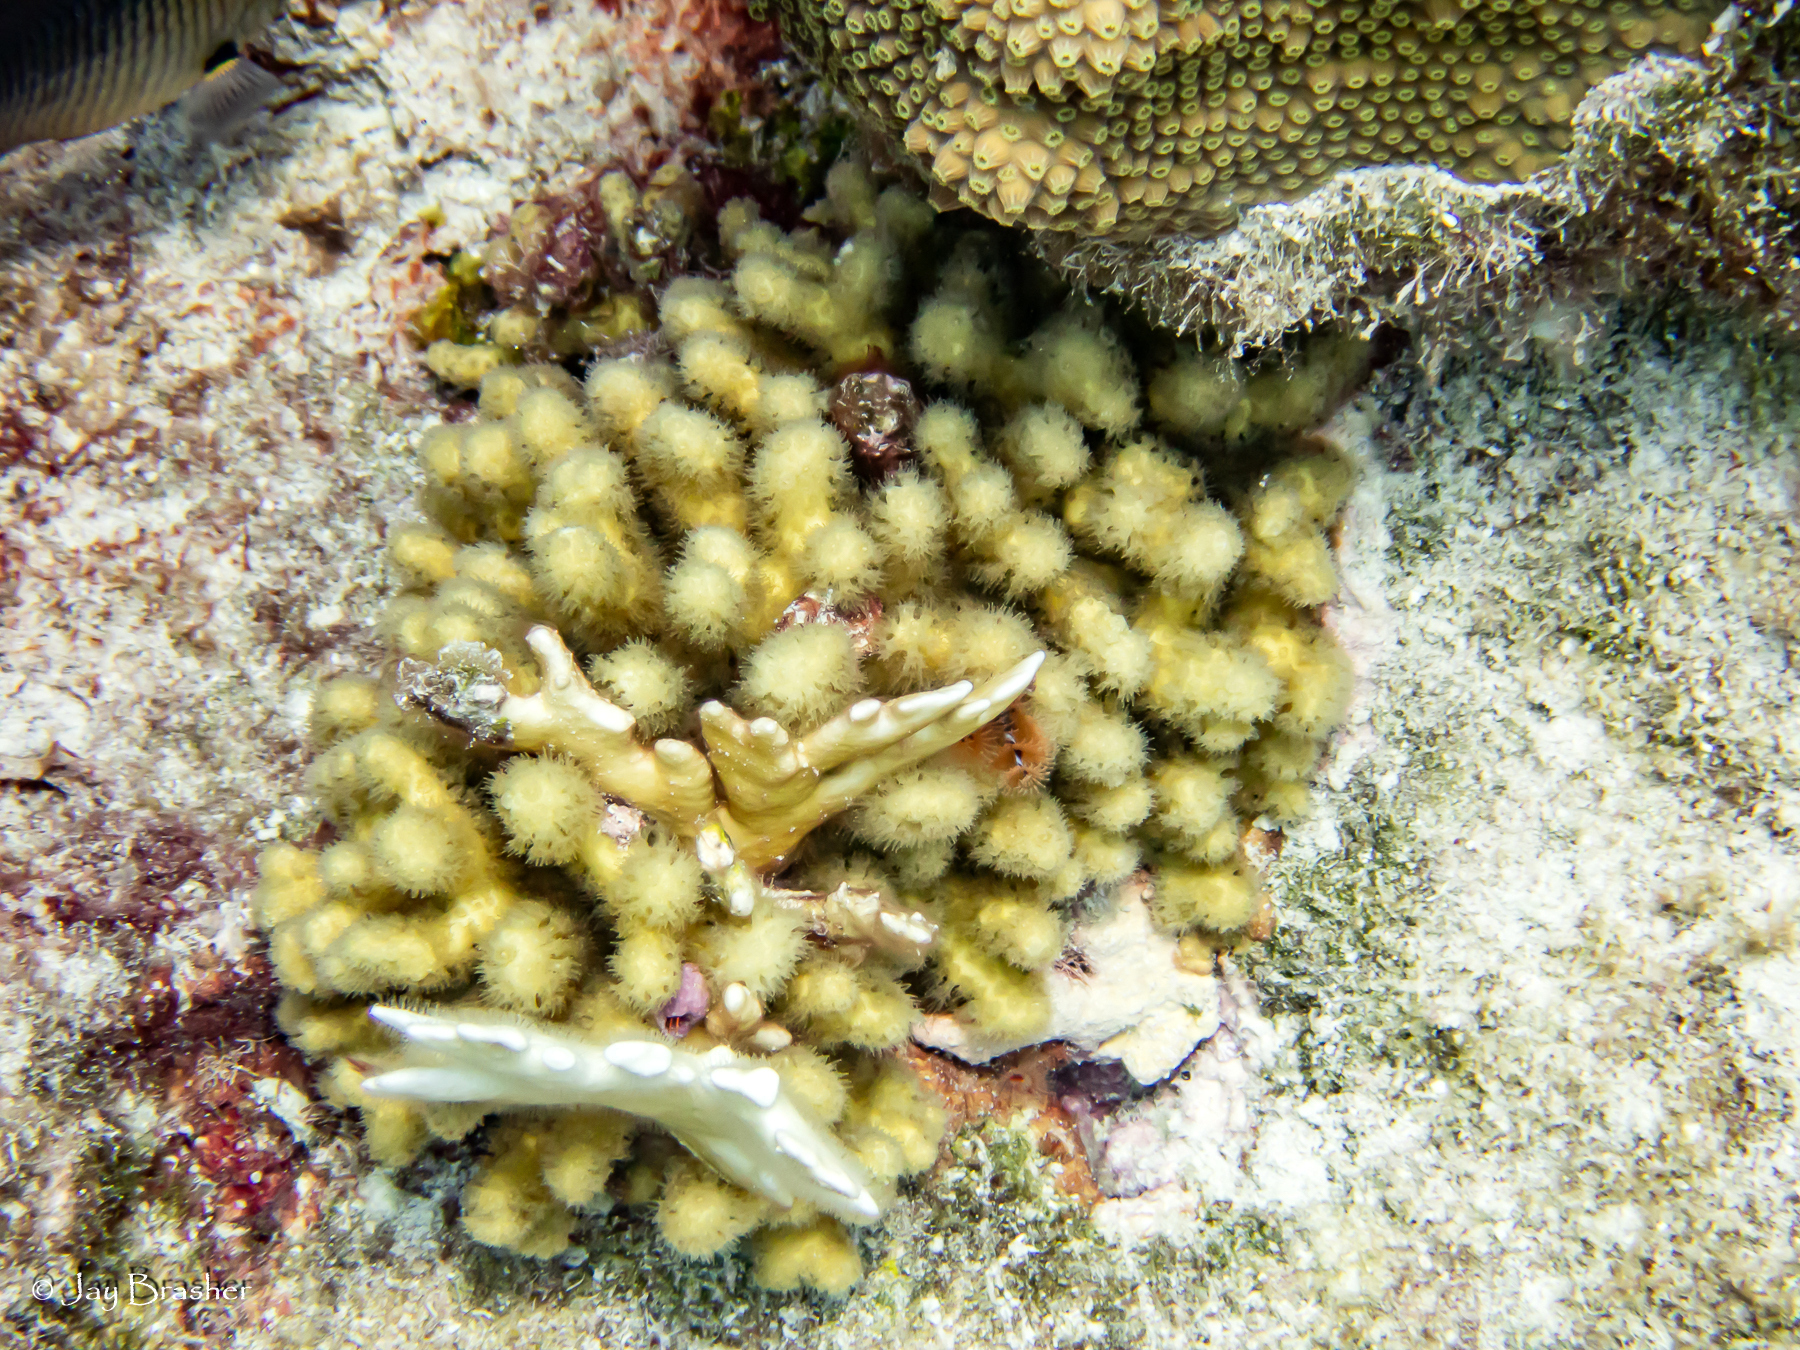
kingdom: Animalia
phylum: Cnidaria
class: Anthozoa
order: Scleractinia
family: Pocilloporidae
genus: Madracis
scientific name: Madracis auretenra
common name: Yellow pencil coral
